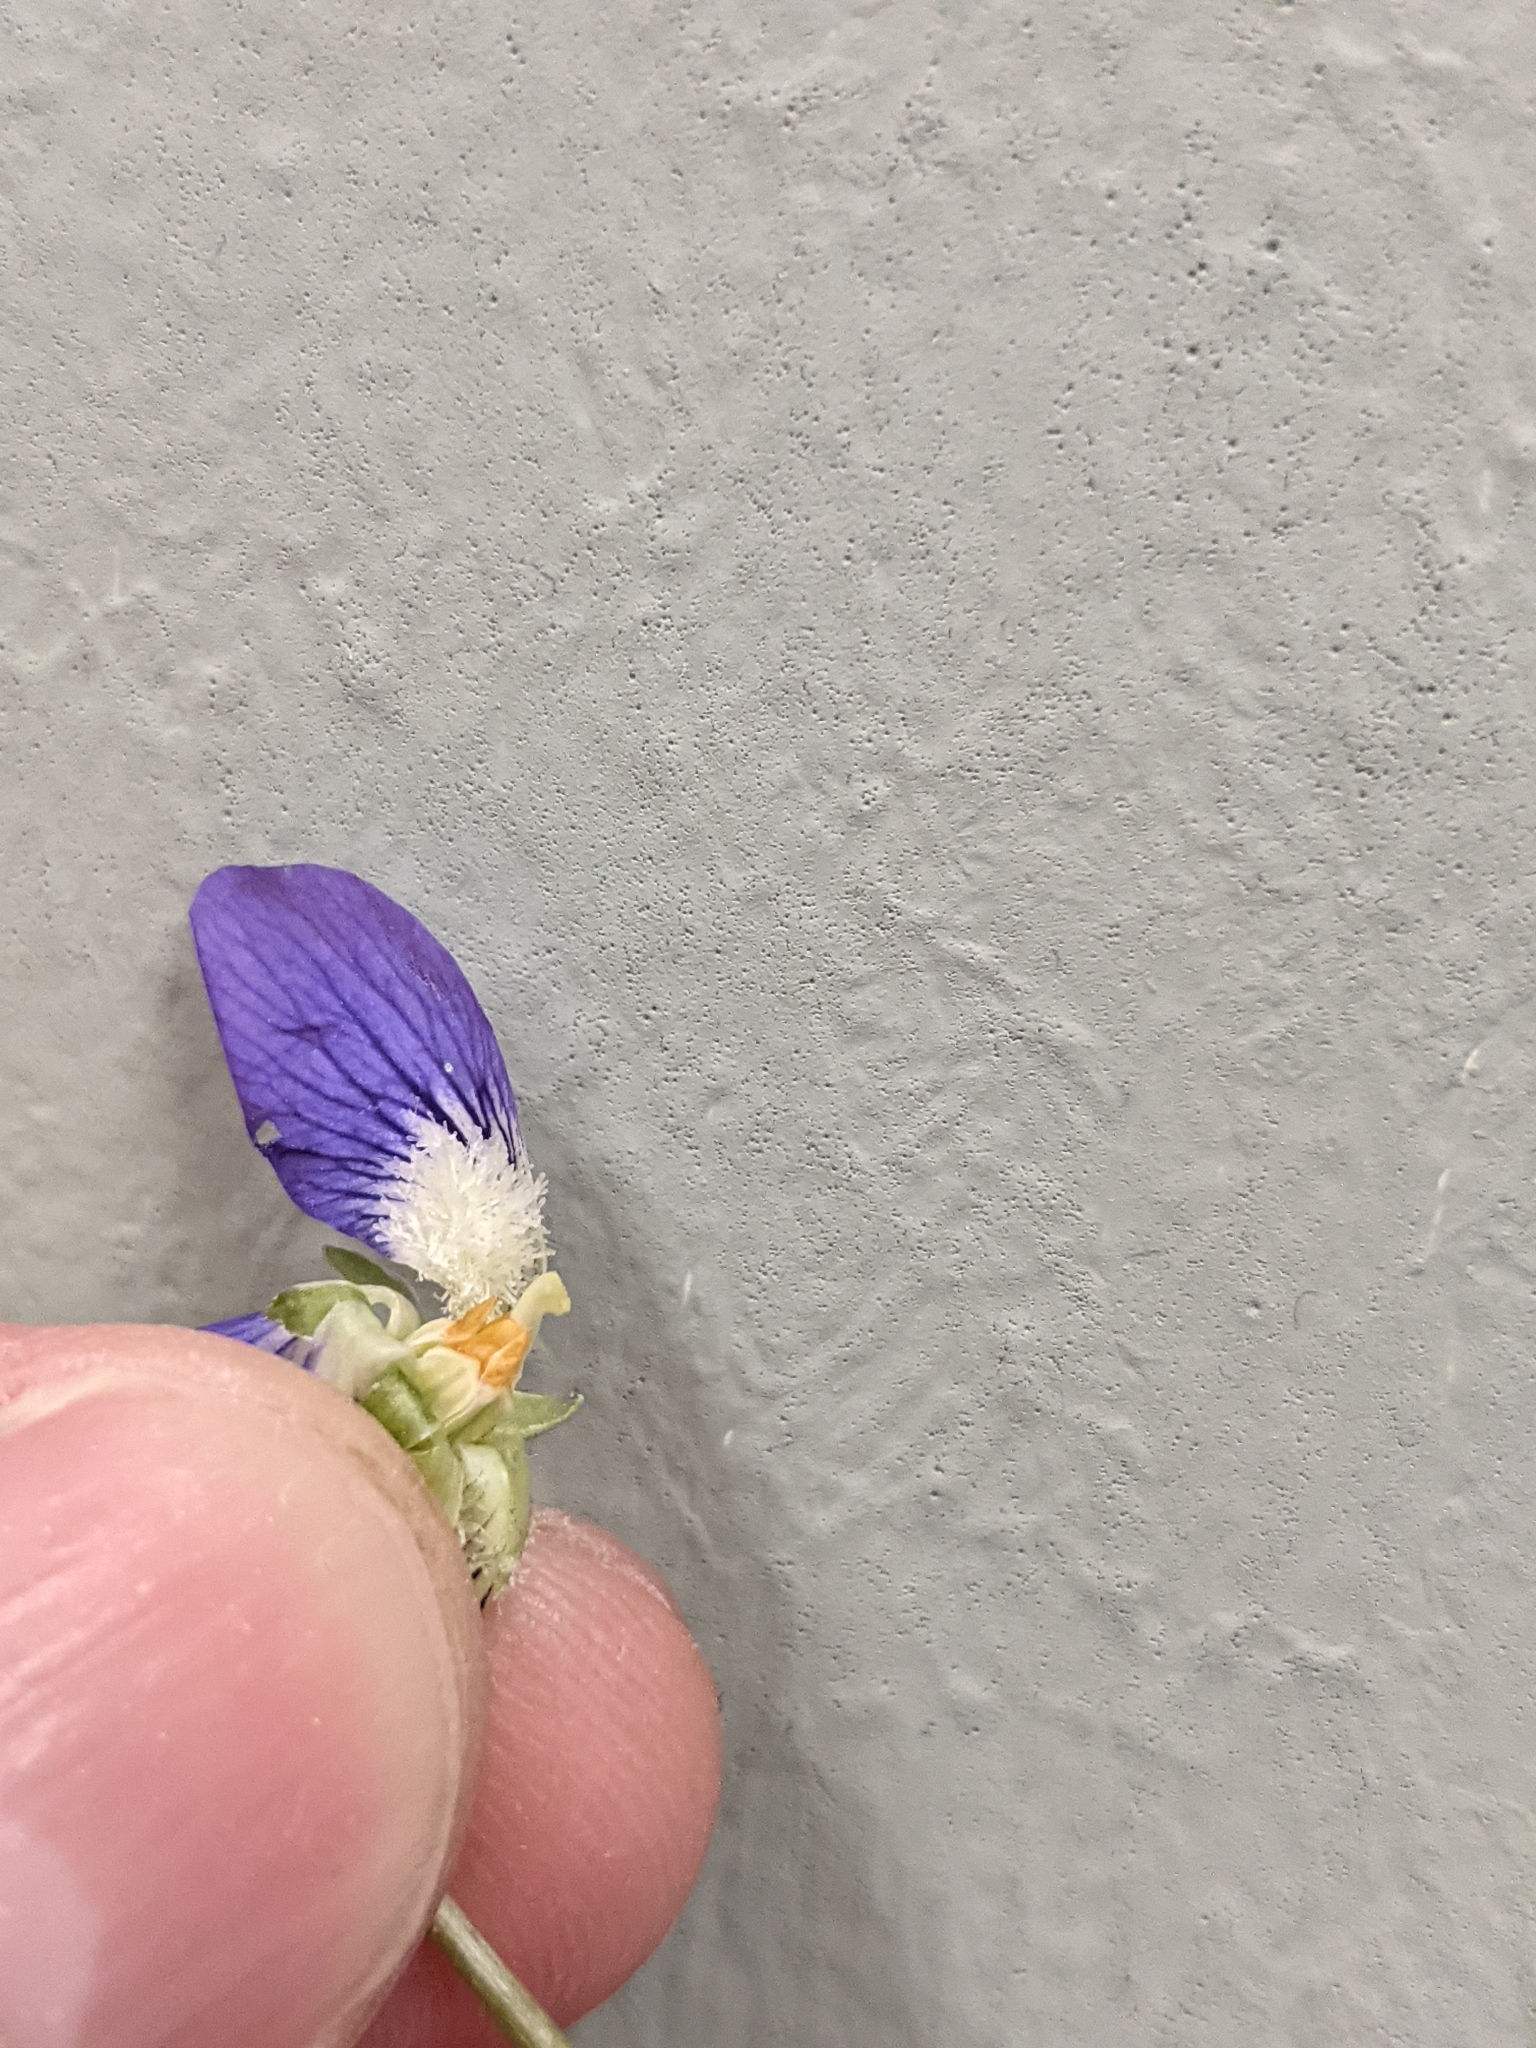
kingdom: Plantae
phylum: Tracheophyta
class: Magnoliopsida
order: Malpighiales
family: Violaceae
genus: Viola
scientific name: Viola sororia
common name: Dooryard violet
